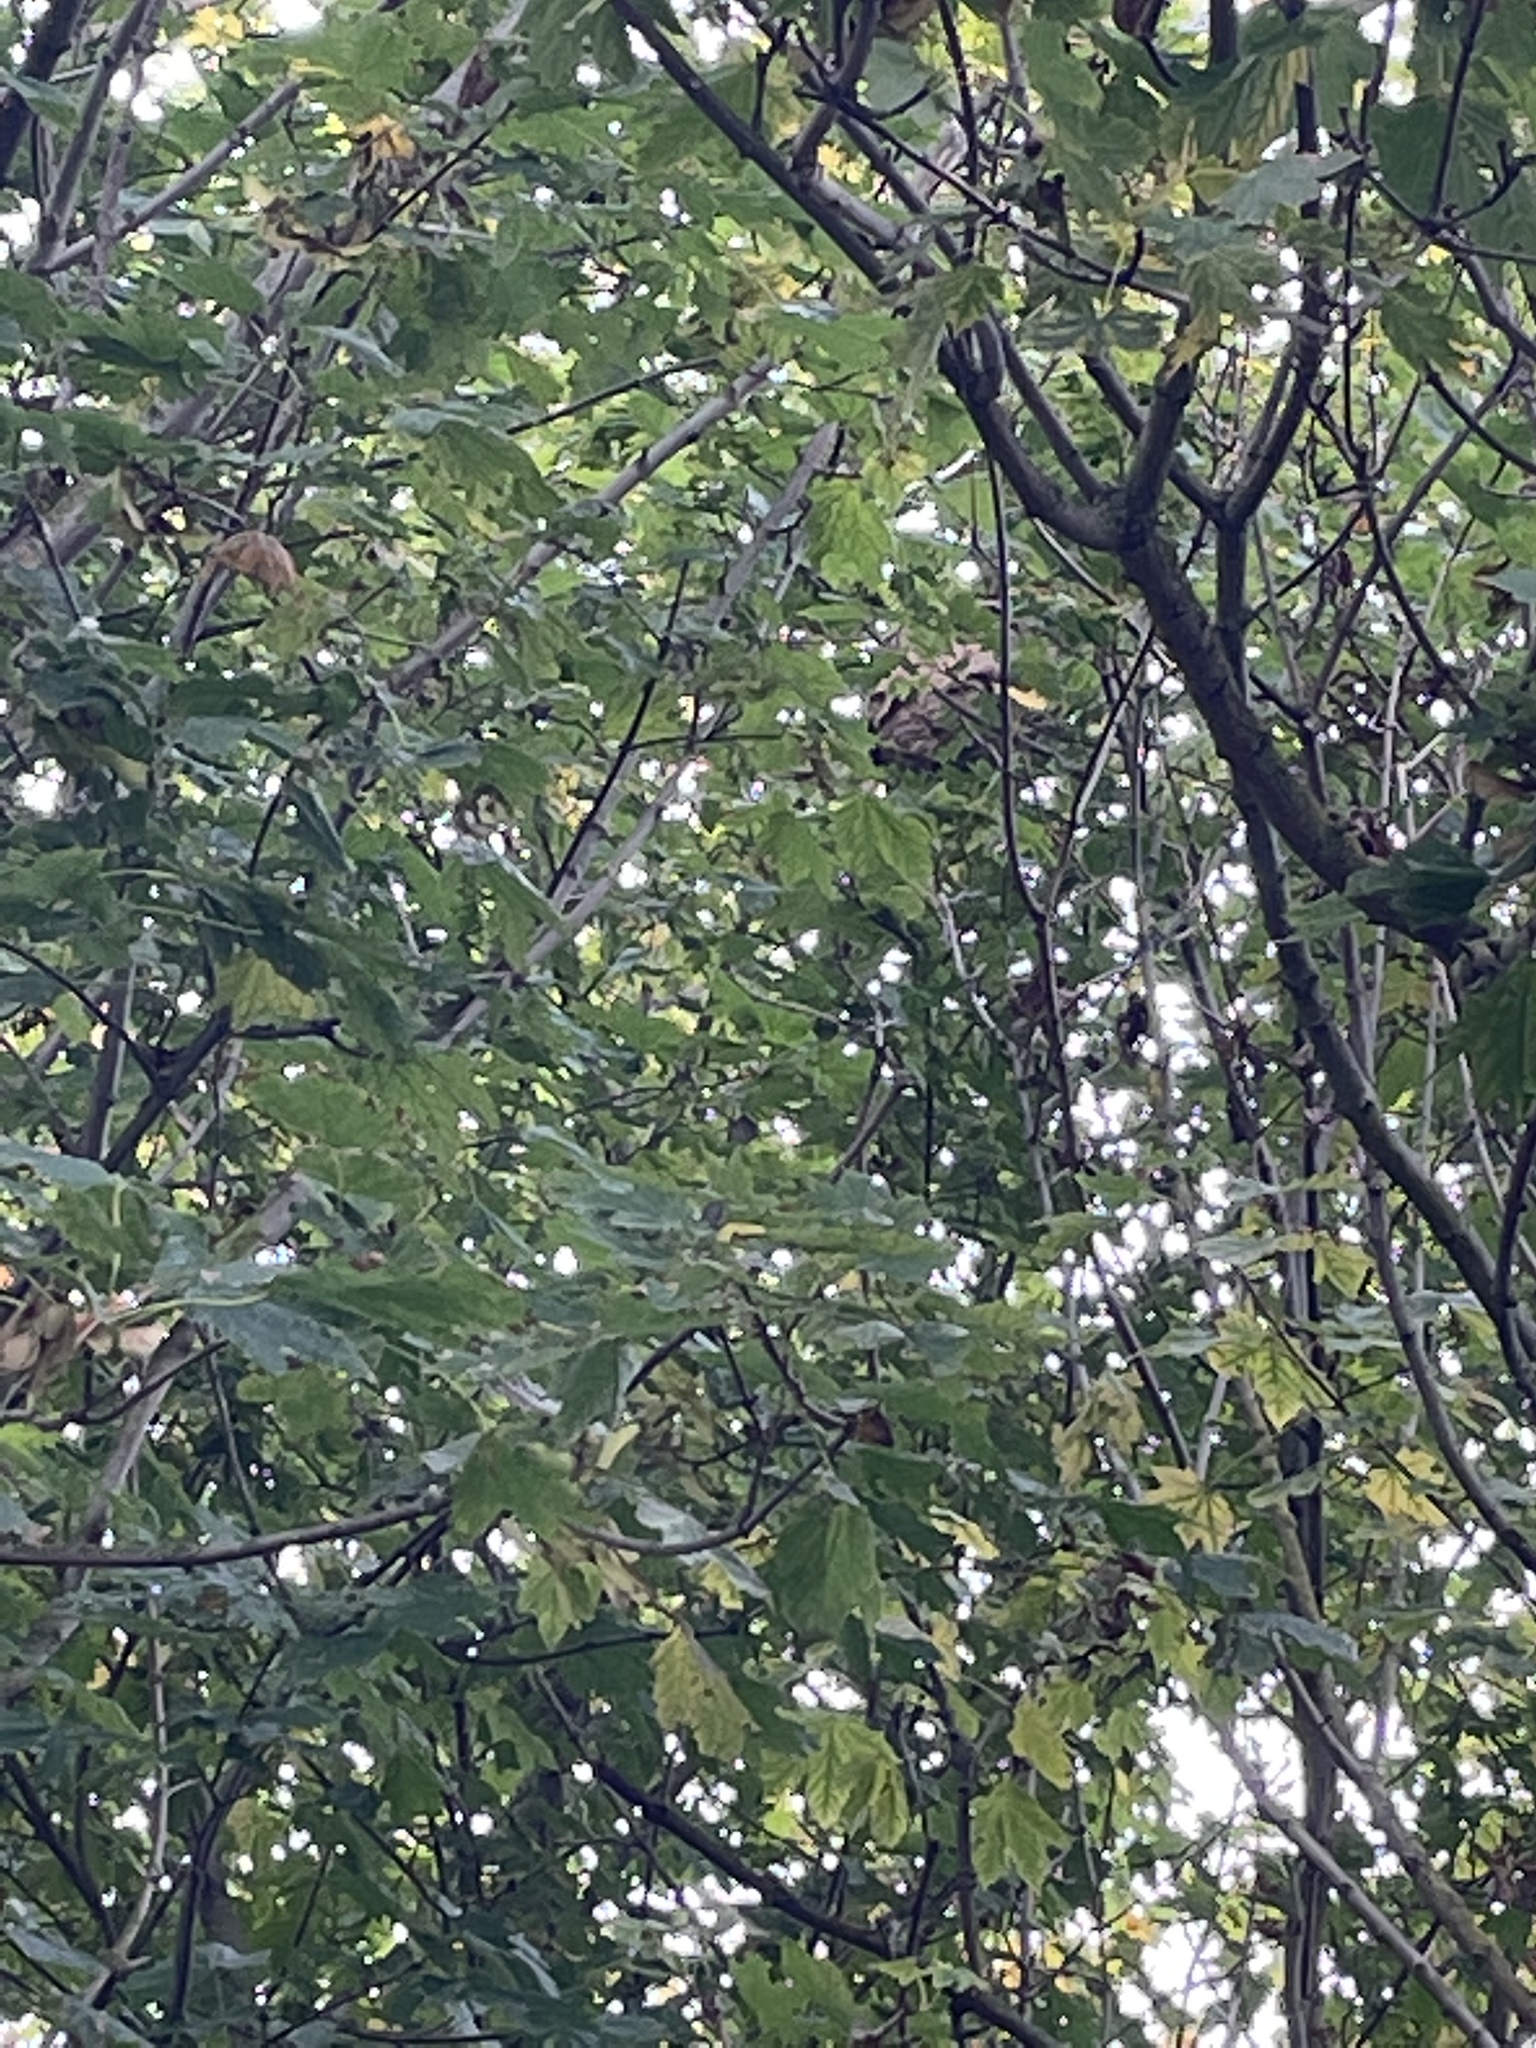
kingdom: Animalia
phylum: Arthropoda
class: Insecta
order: Hymenoptera
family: Vespidae
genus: Vespa
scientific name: Vespa velutina
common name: Asian hornet
